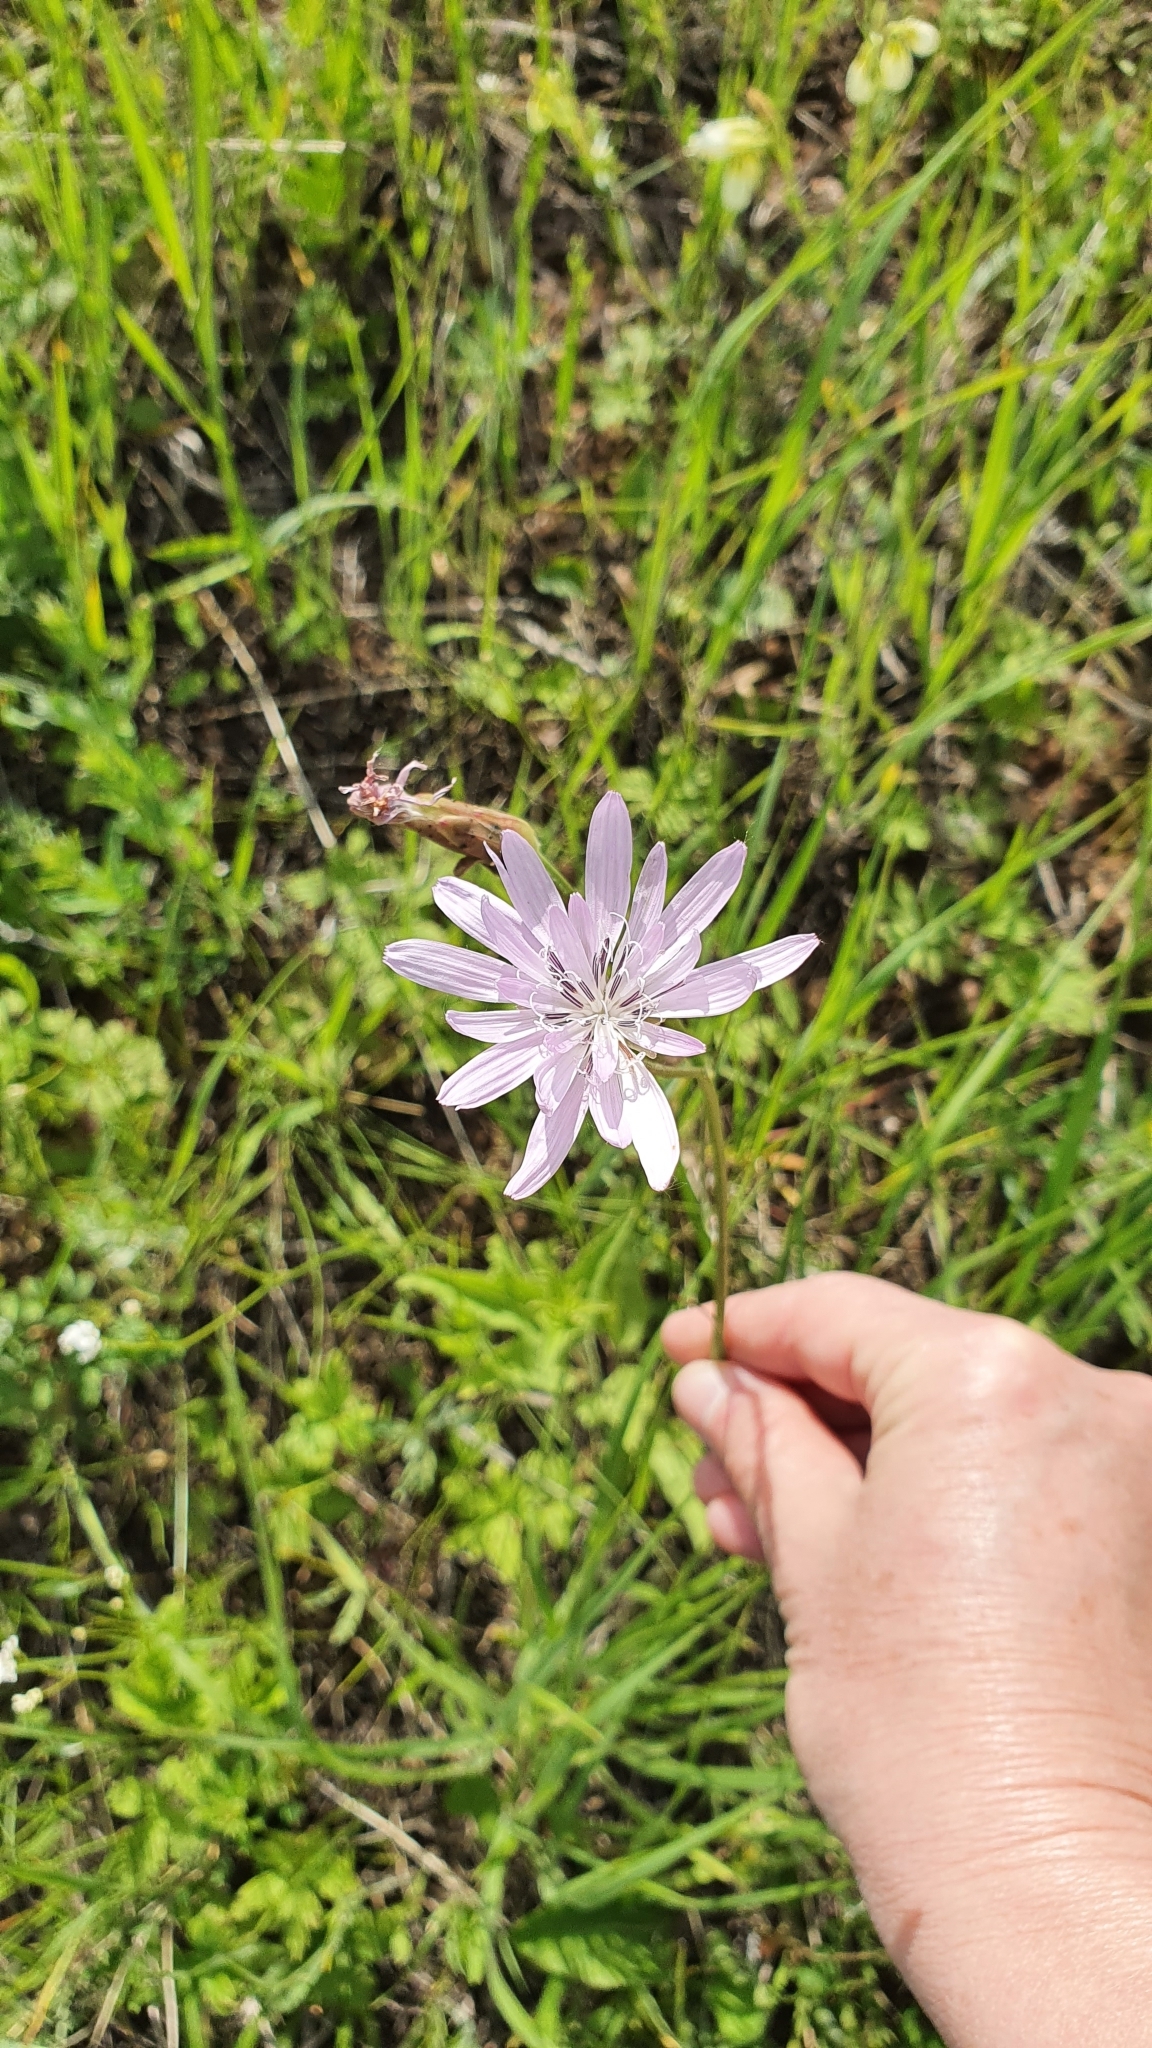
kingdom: Plantae
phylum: Tracheophyta
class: Magnoliopsida
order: Asterales
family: Asteraceae
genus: Scorzonera
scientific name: Scorzonera purpurea
